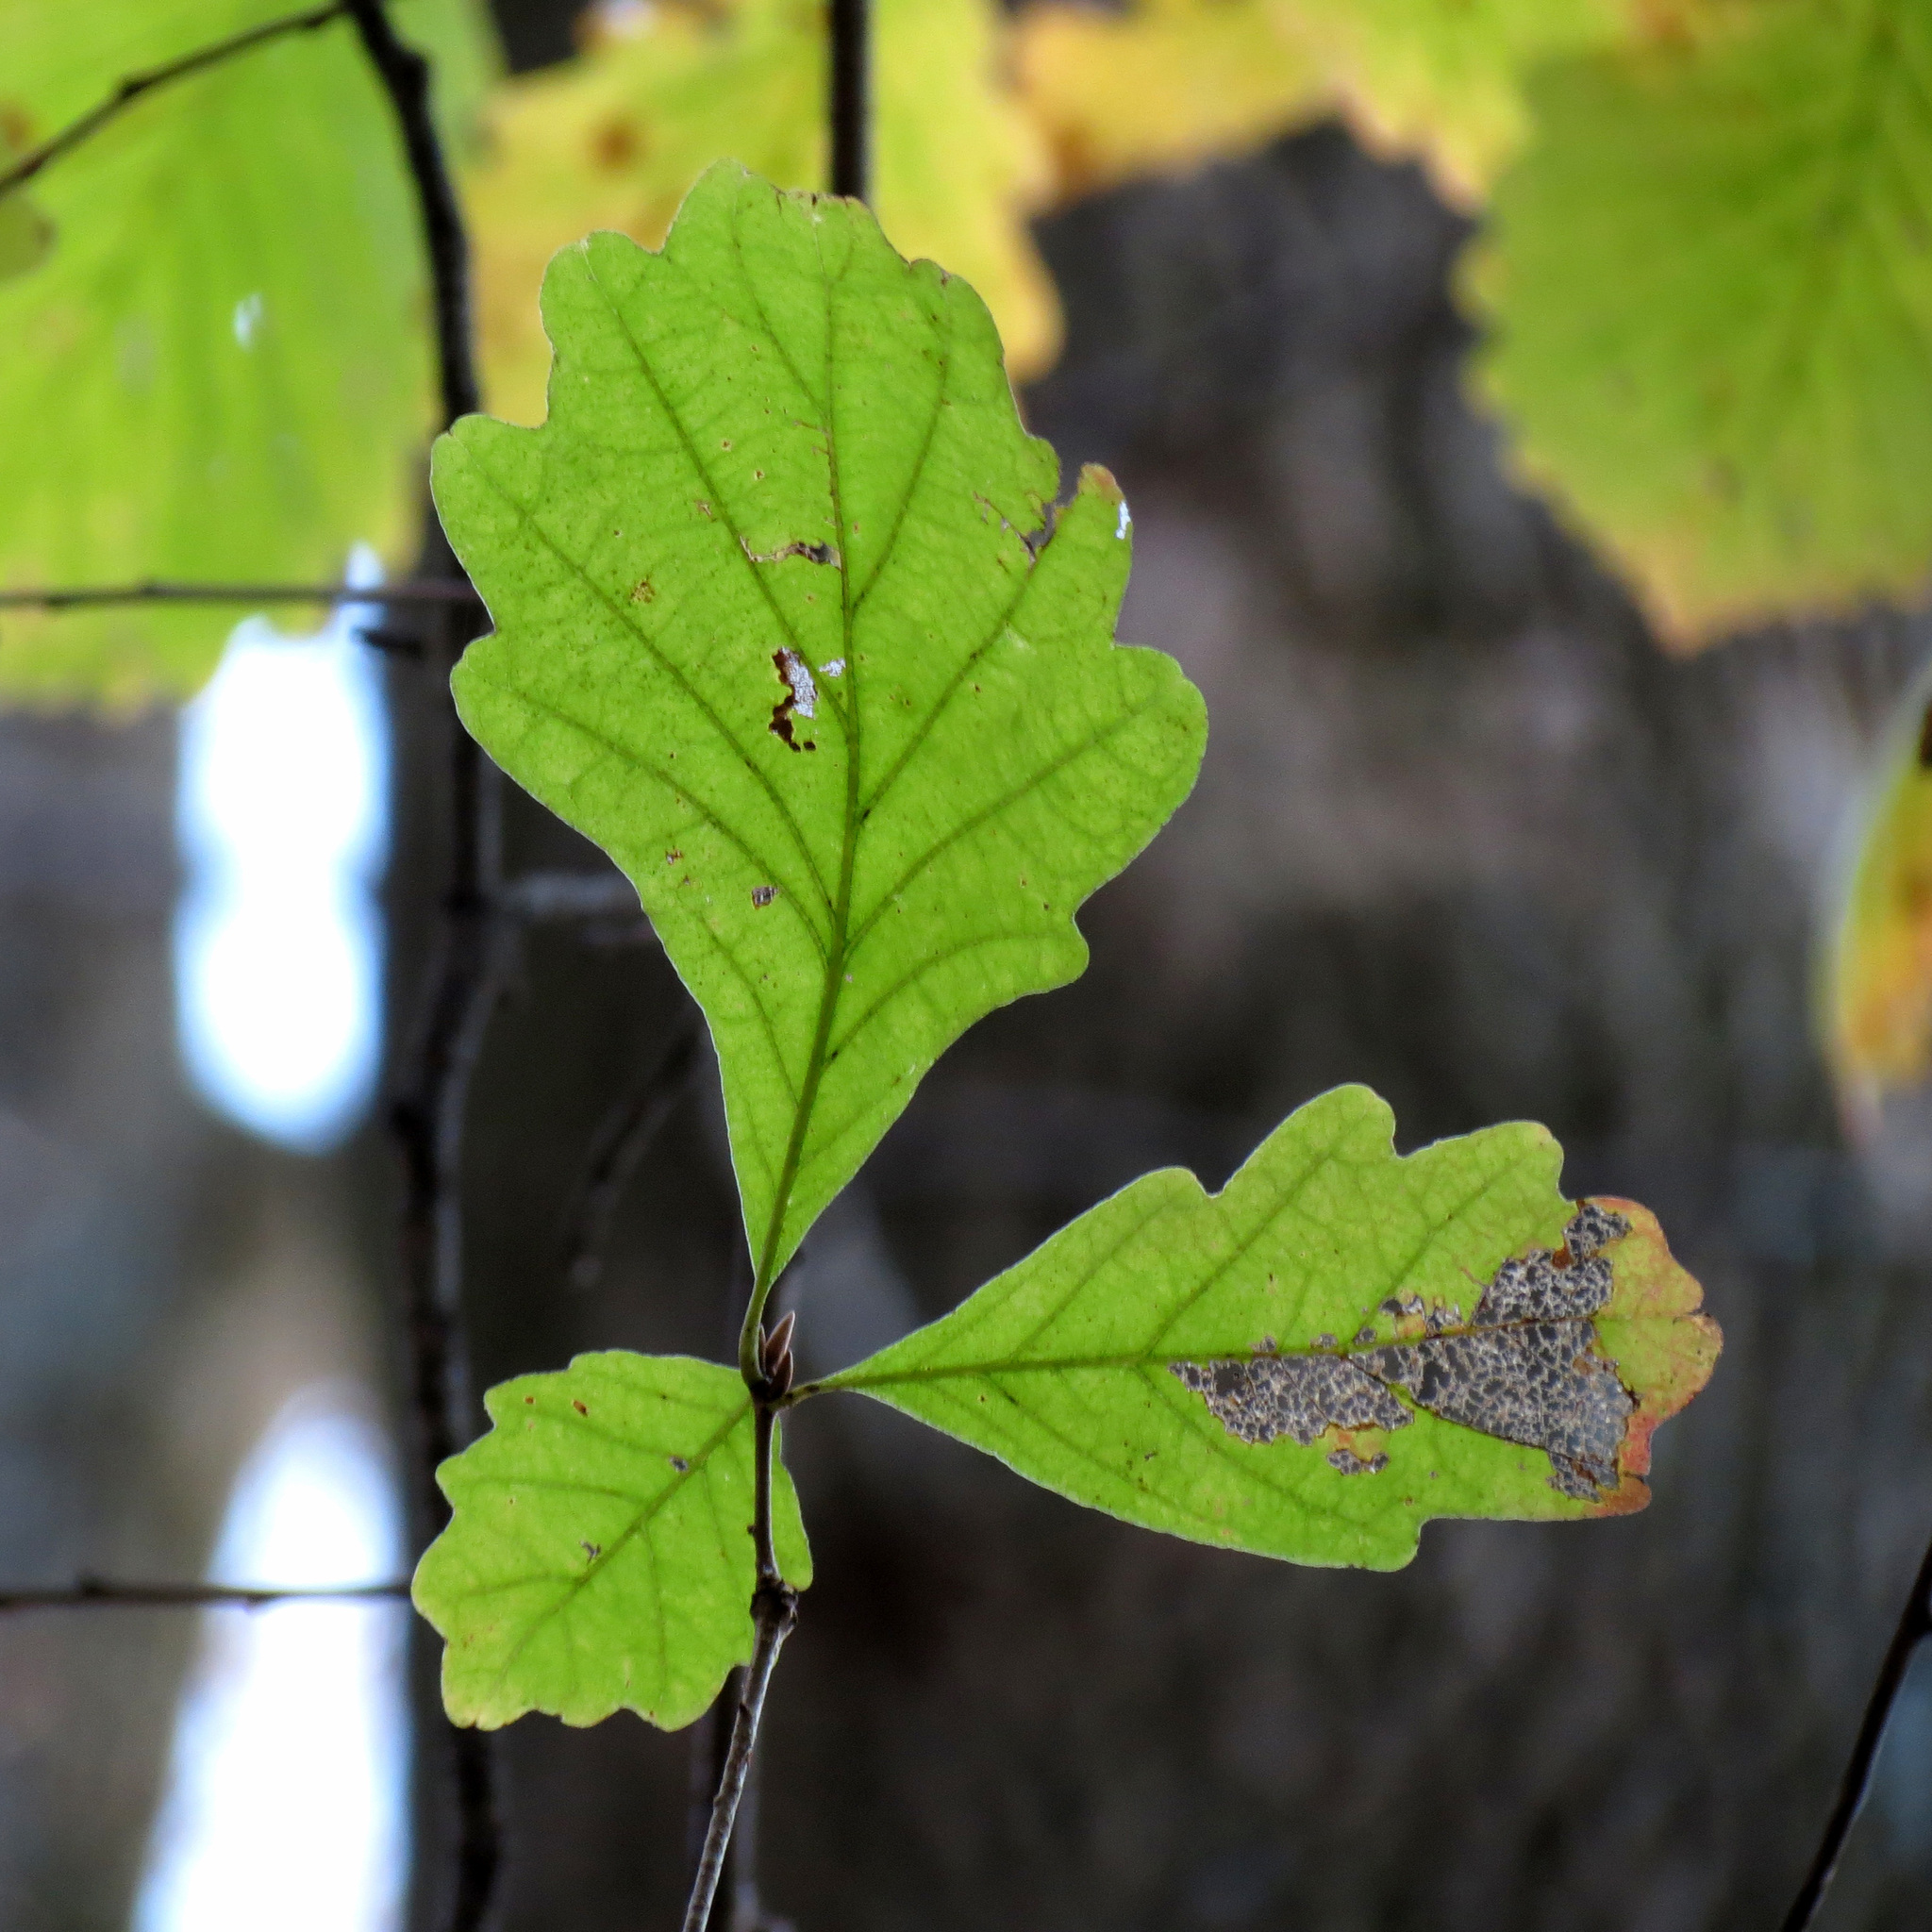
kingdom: Plantae
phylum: Tracheophyta
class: Magnoliopsida
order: Fagales
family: Fagaceae
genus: Quercus
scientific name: Quercus montana
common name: Chestnut oak
